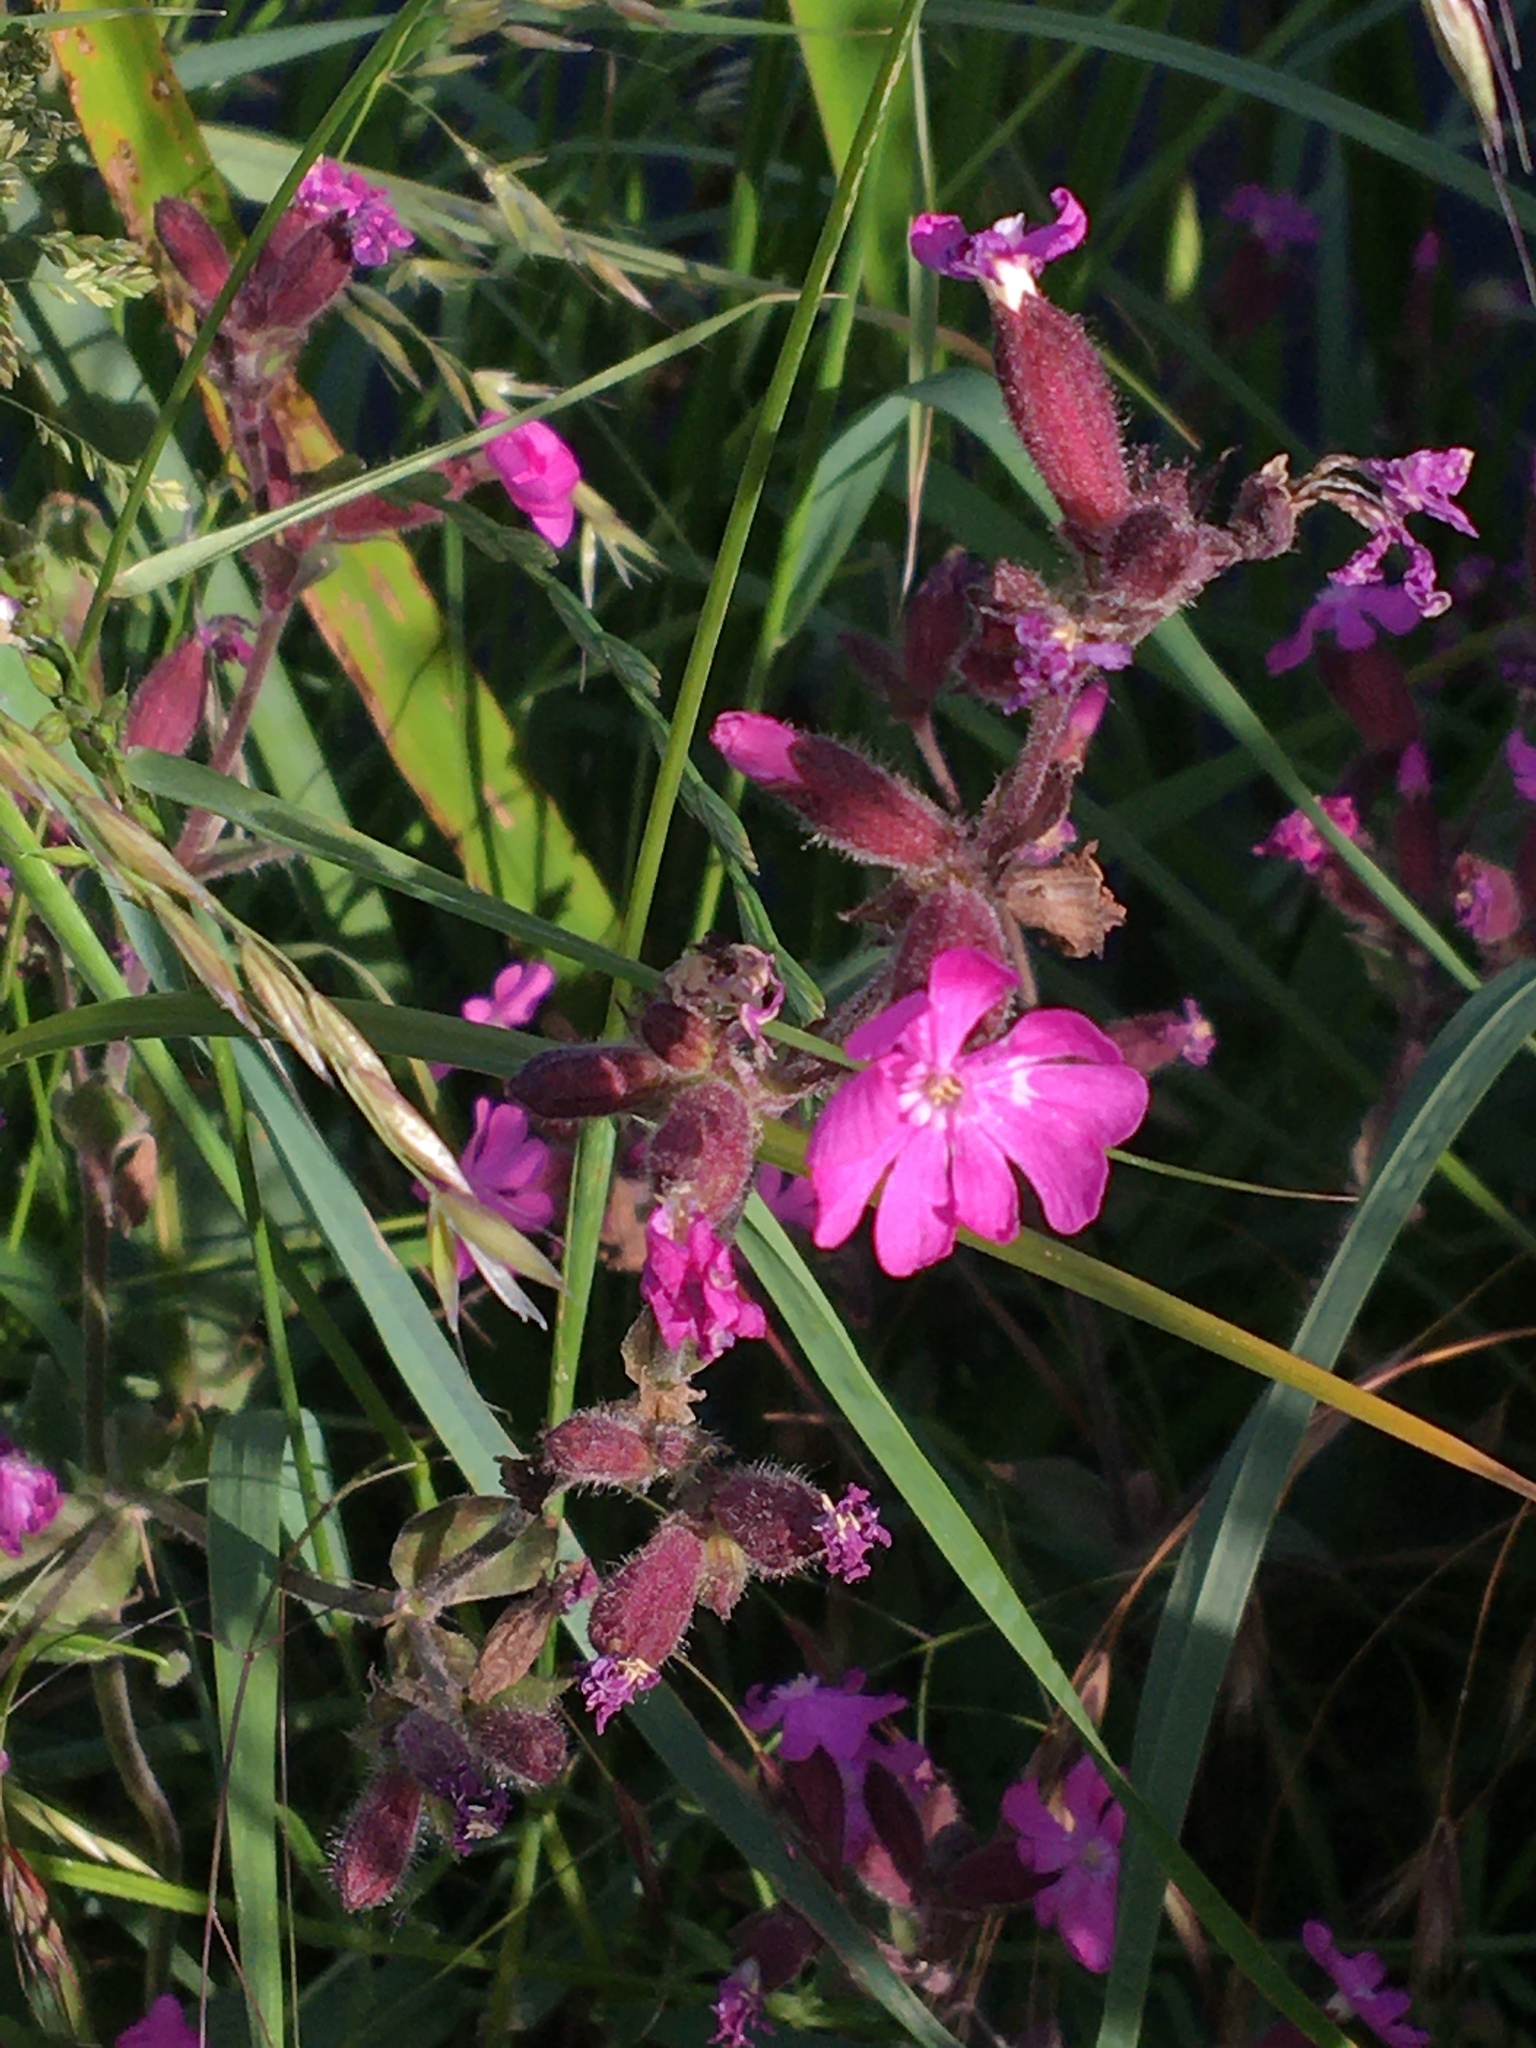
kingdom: Plantae
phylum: Tracheophyta
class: Magnoliopsida
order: Caryophyllales
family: Caryophyllaceae
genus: Silene
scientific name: Silene dioica
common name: Red campion
